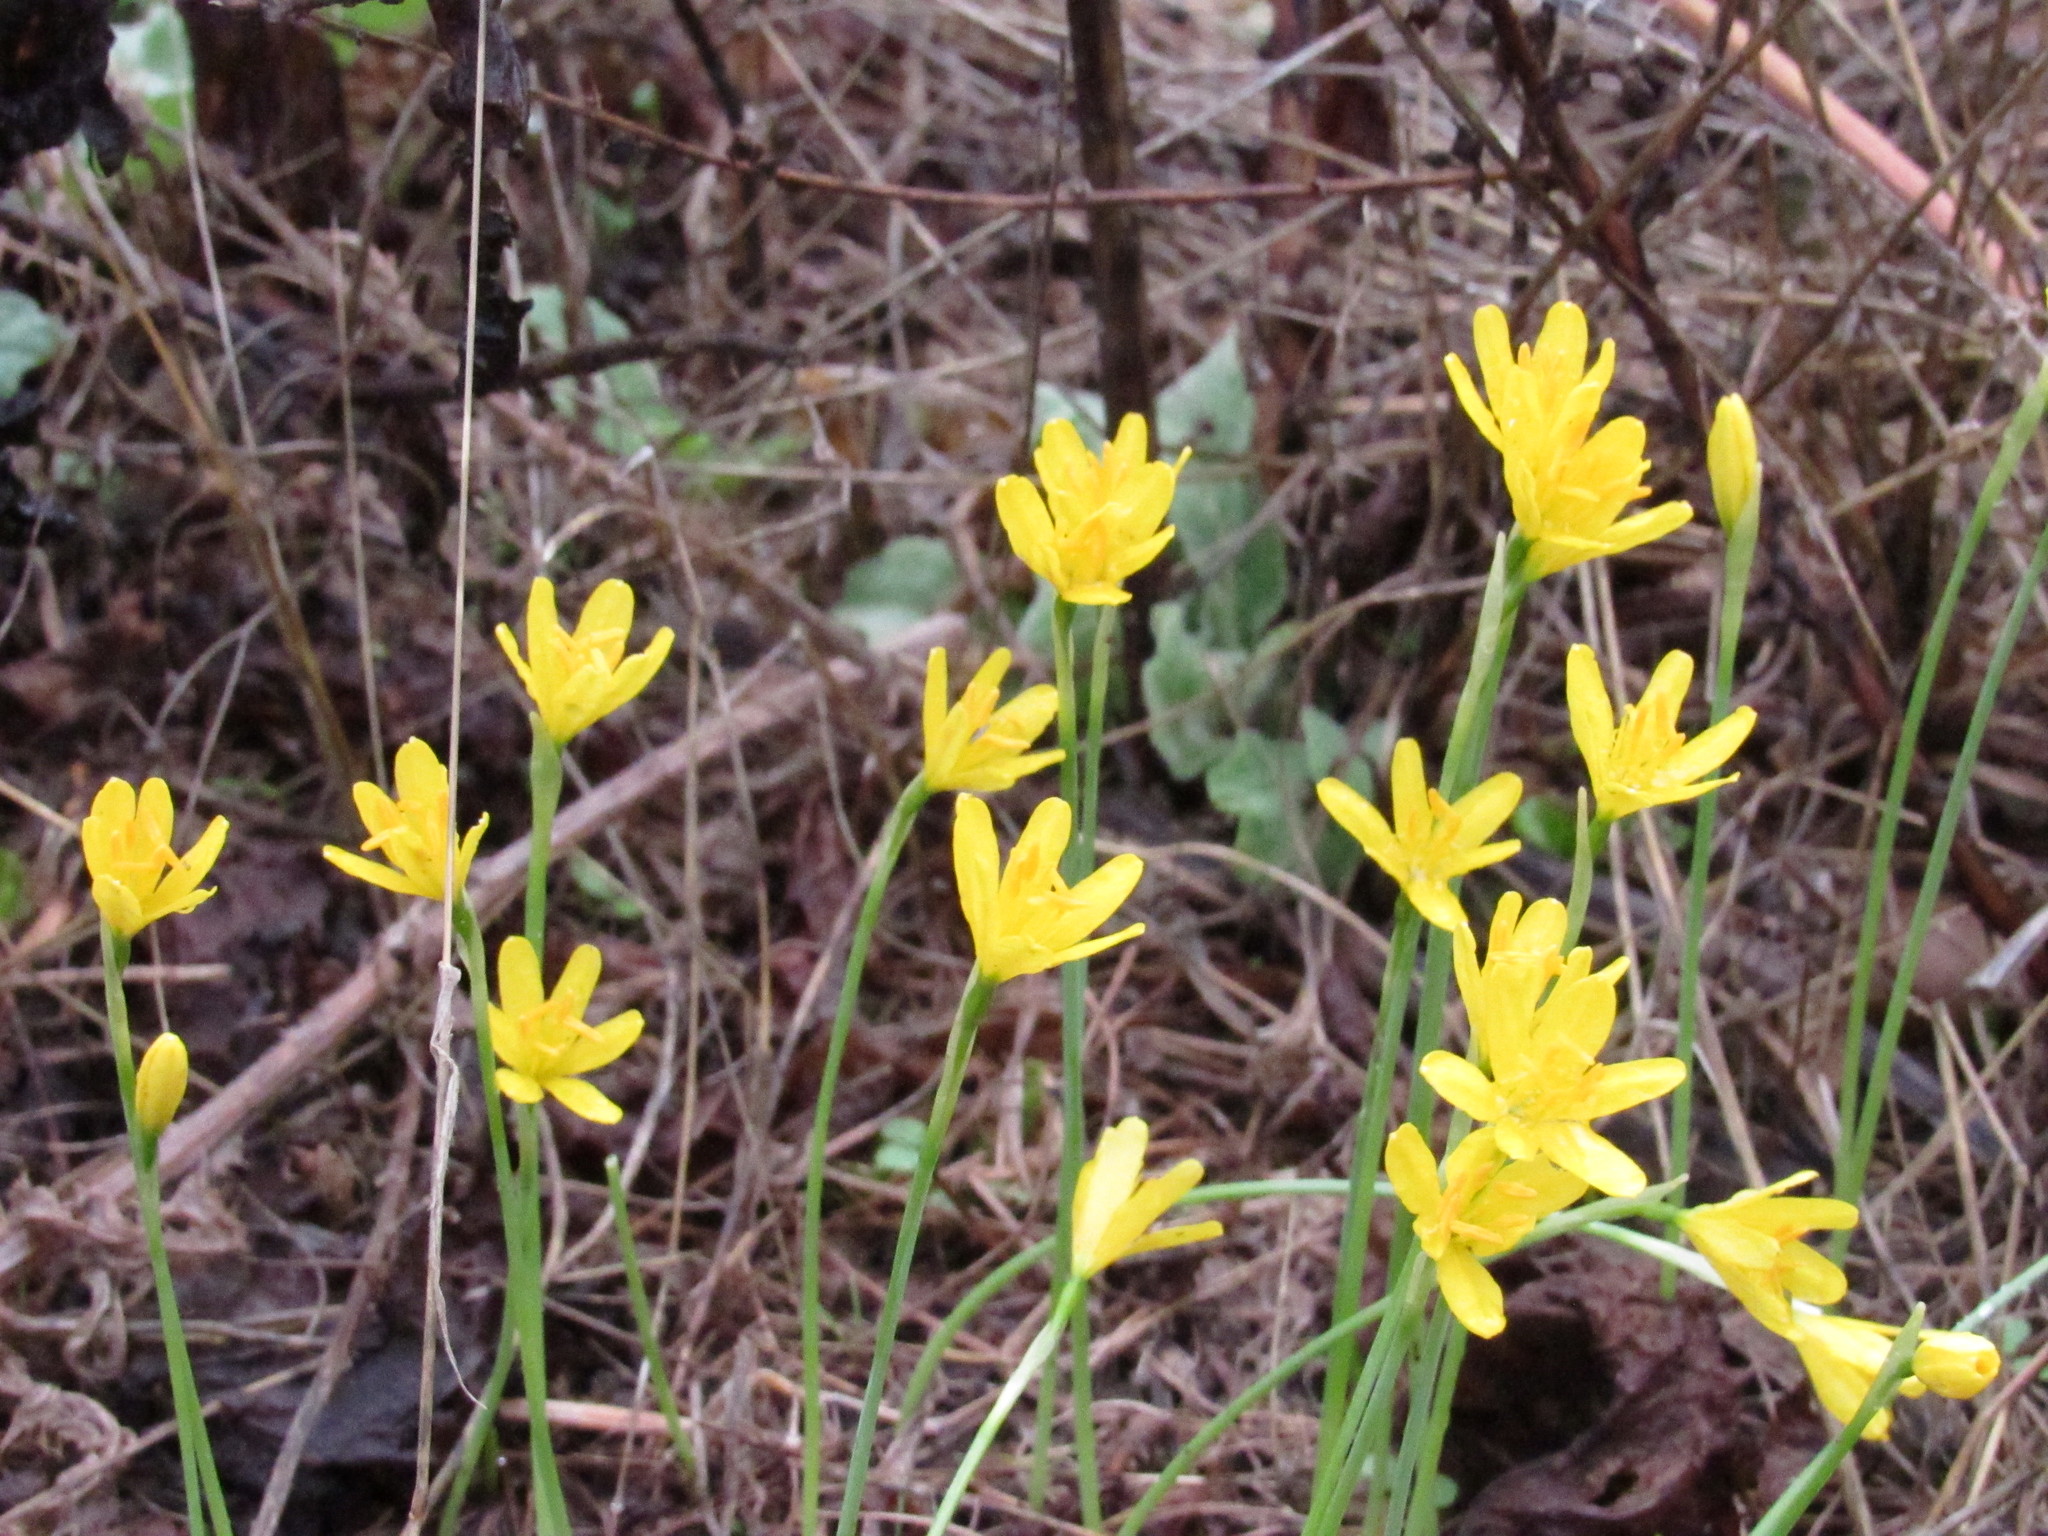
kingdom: Plantae
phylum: Tracheophyta
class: Liliopsida
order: Asparagales
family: Amaryllidaceae
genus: Narcissus
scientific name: Narcissus cavanillesii
